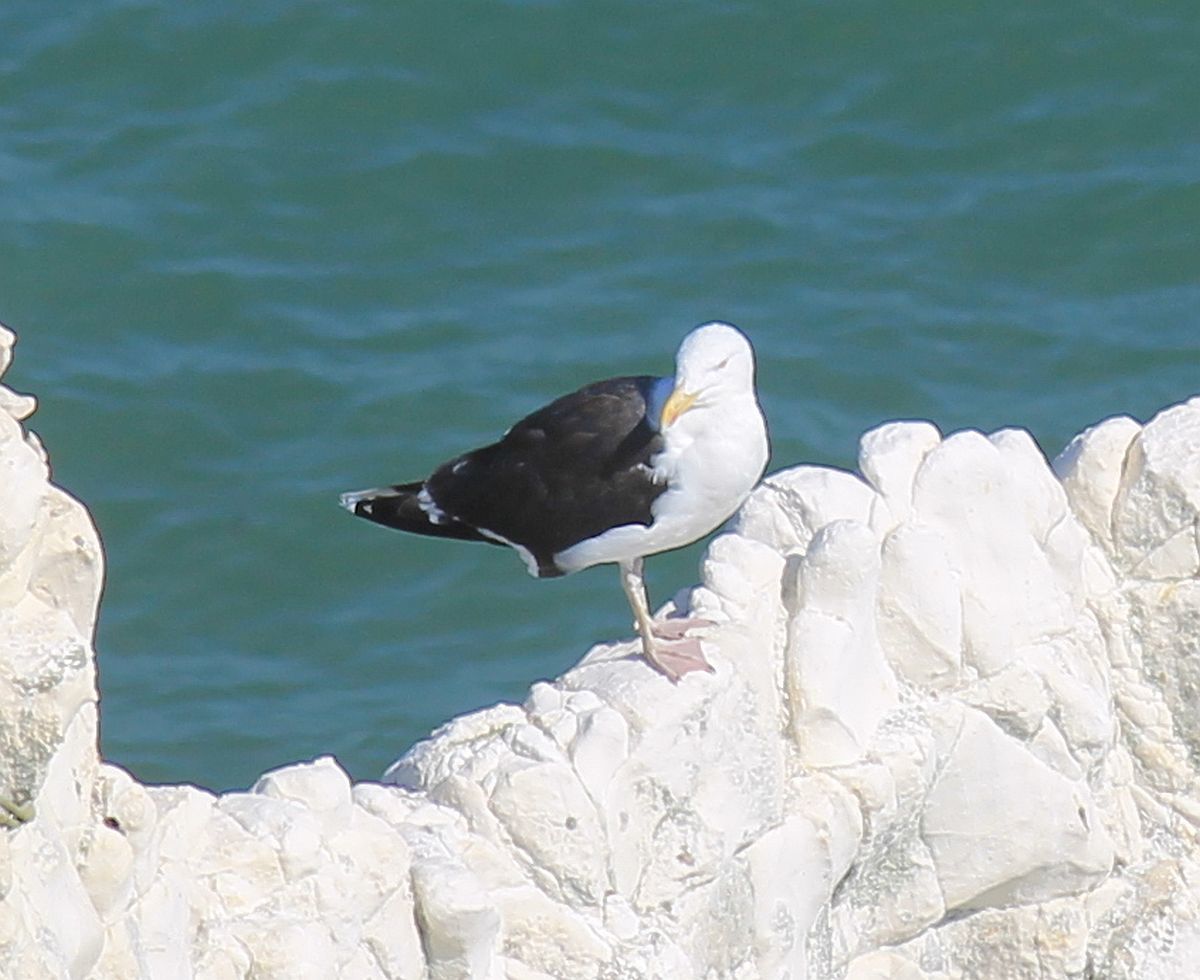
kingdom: Animalia
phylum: Chordata
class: Aves
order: Charadriiformes
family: Laridae
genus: Larus
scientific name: Larus marinus
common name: Great black-backed gull
